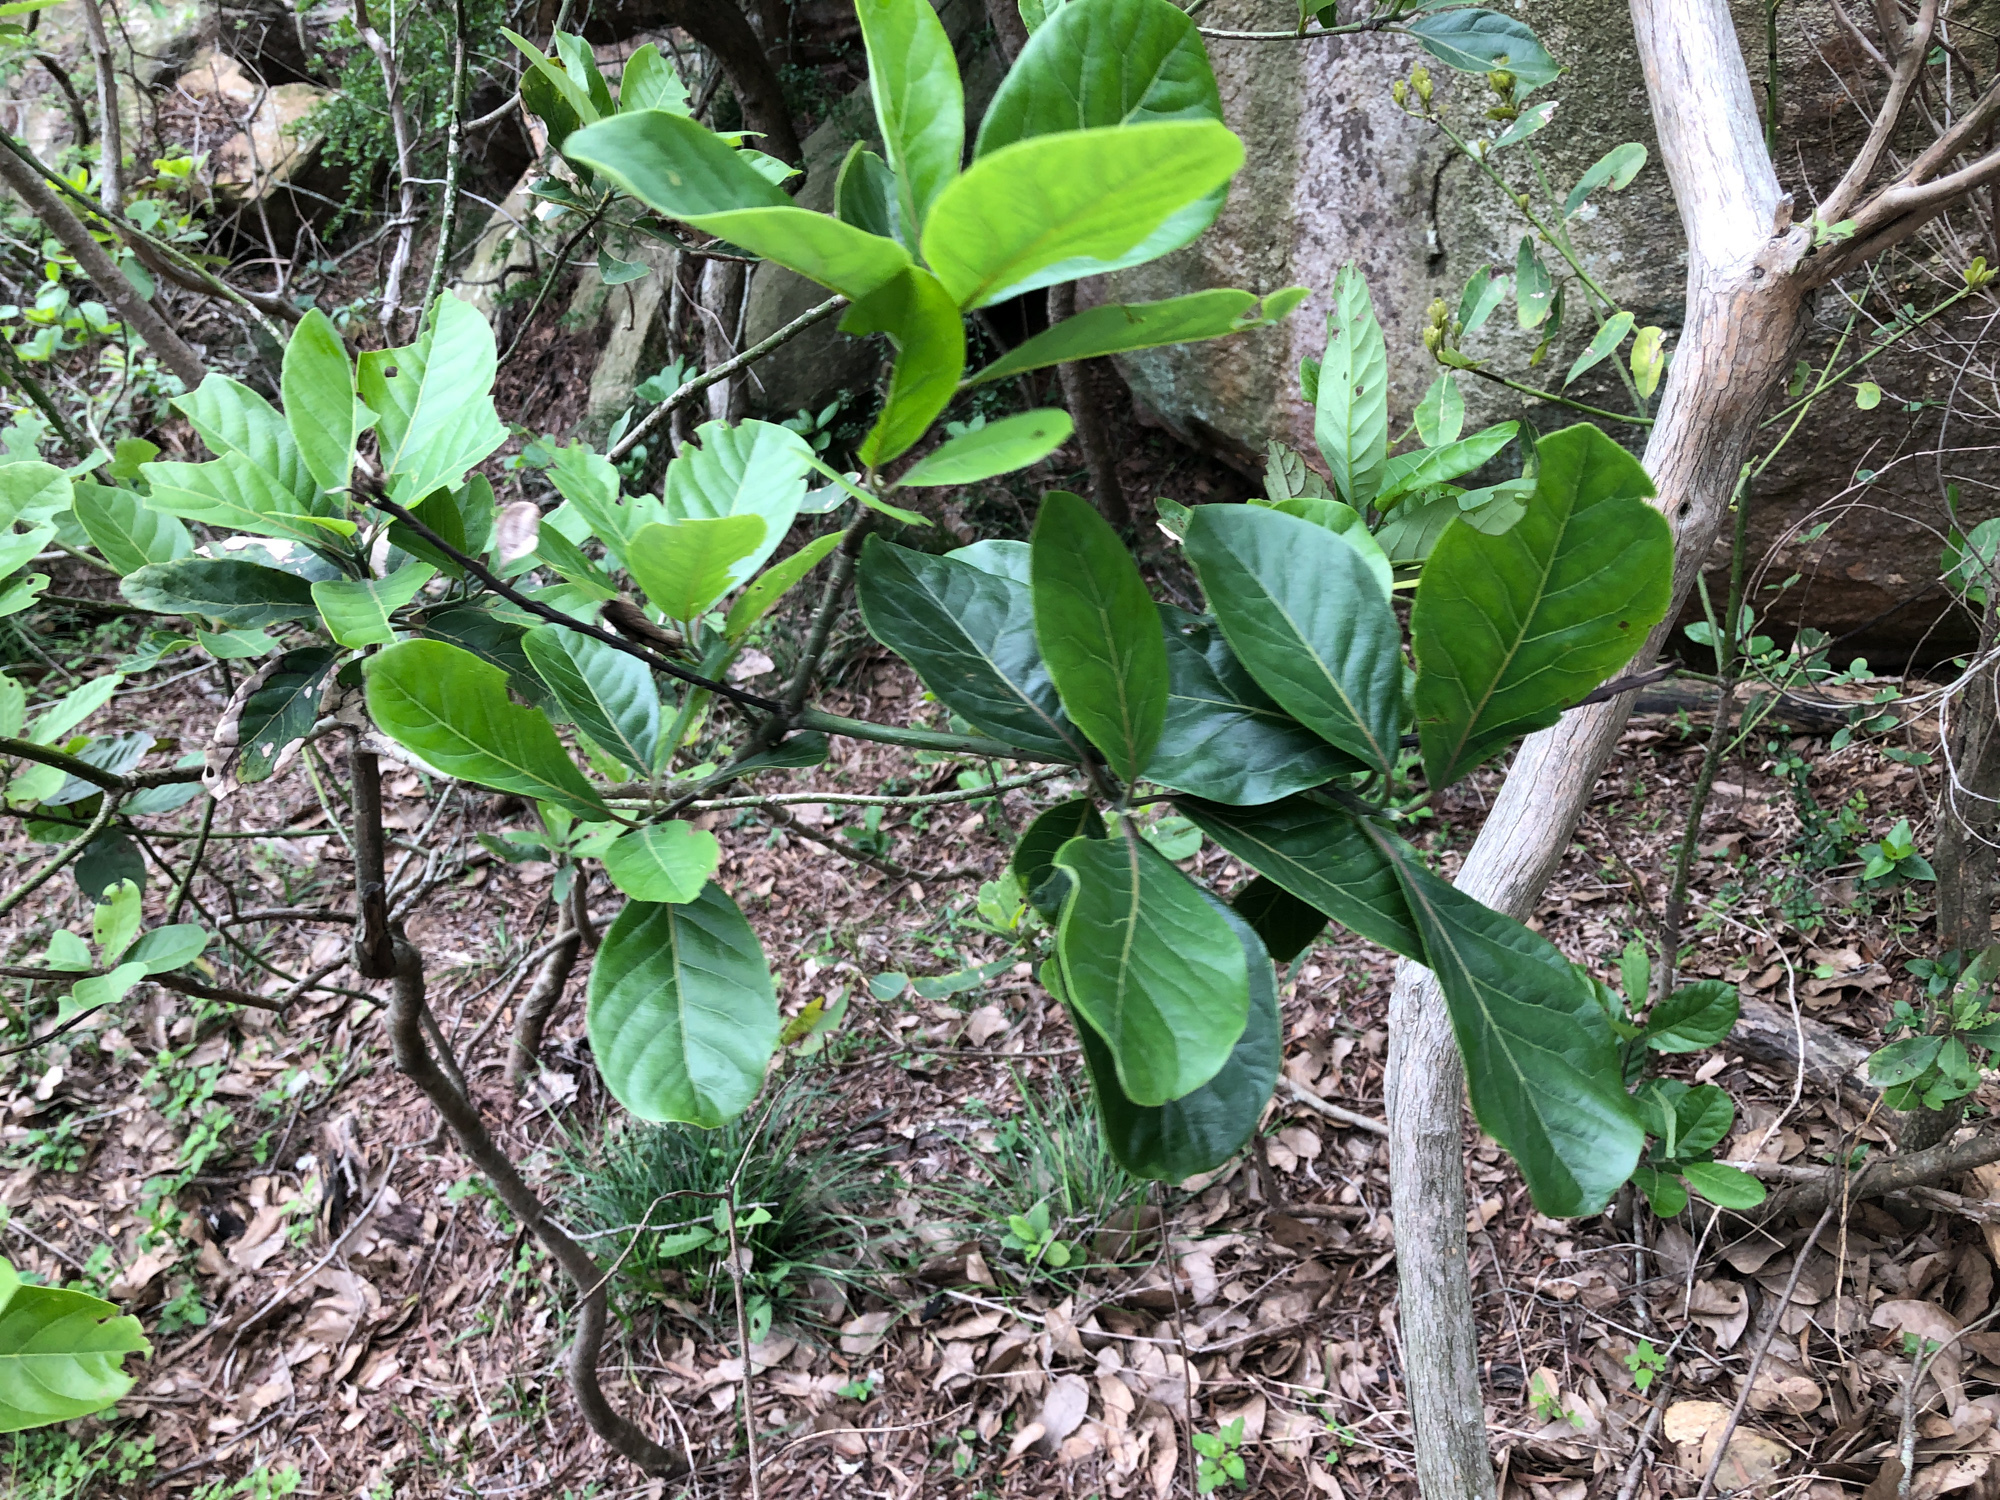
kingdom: Plantae
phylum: Tracheophyta
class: Magnoliopsida
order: Laurales
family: Lauraceae
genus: Litsea
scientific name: Litsea glutinosa
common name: Indian-laurel
